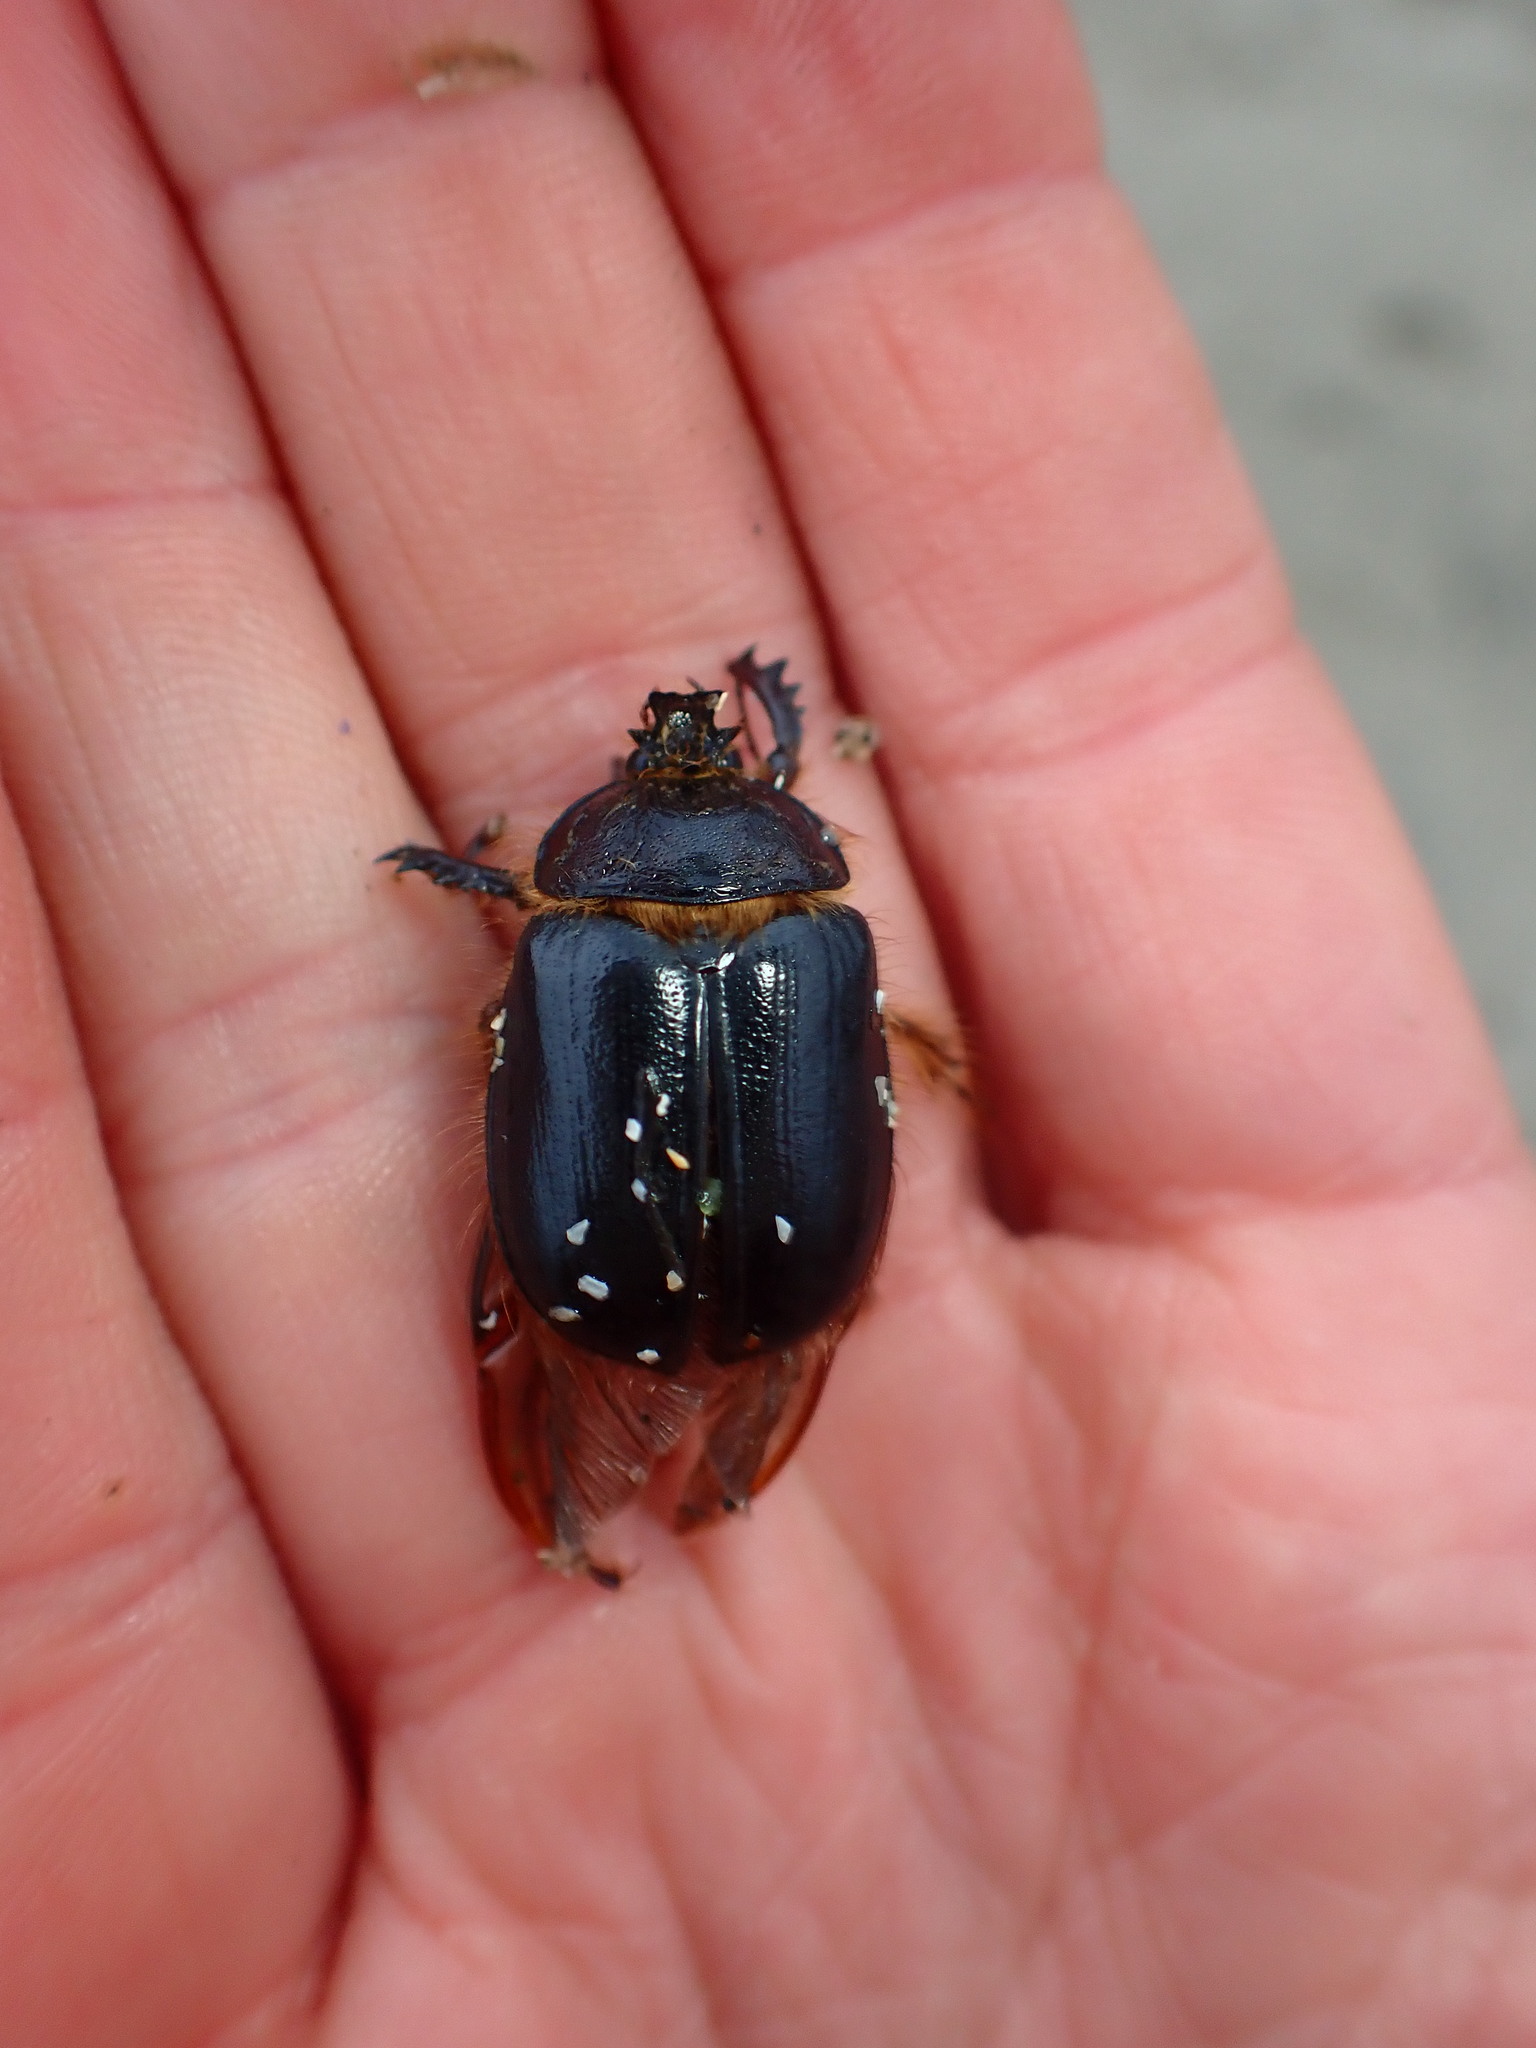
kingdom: Animalia
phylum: Arthropoda
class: Insecta
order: Coleoptera
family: Pleocomidae
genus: Pleocoma
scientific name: Pleocoma behrensi
